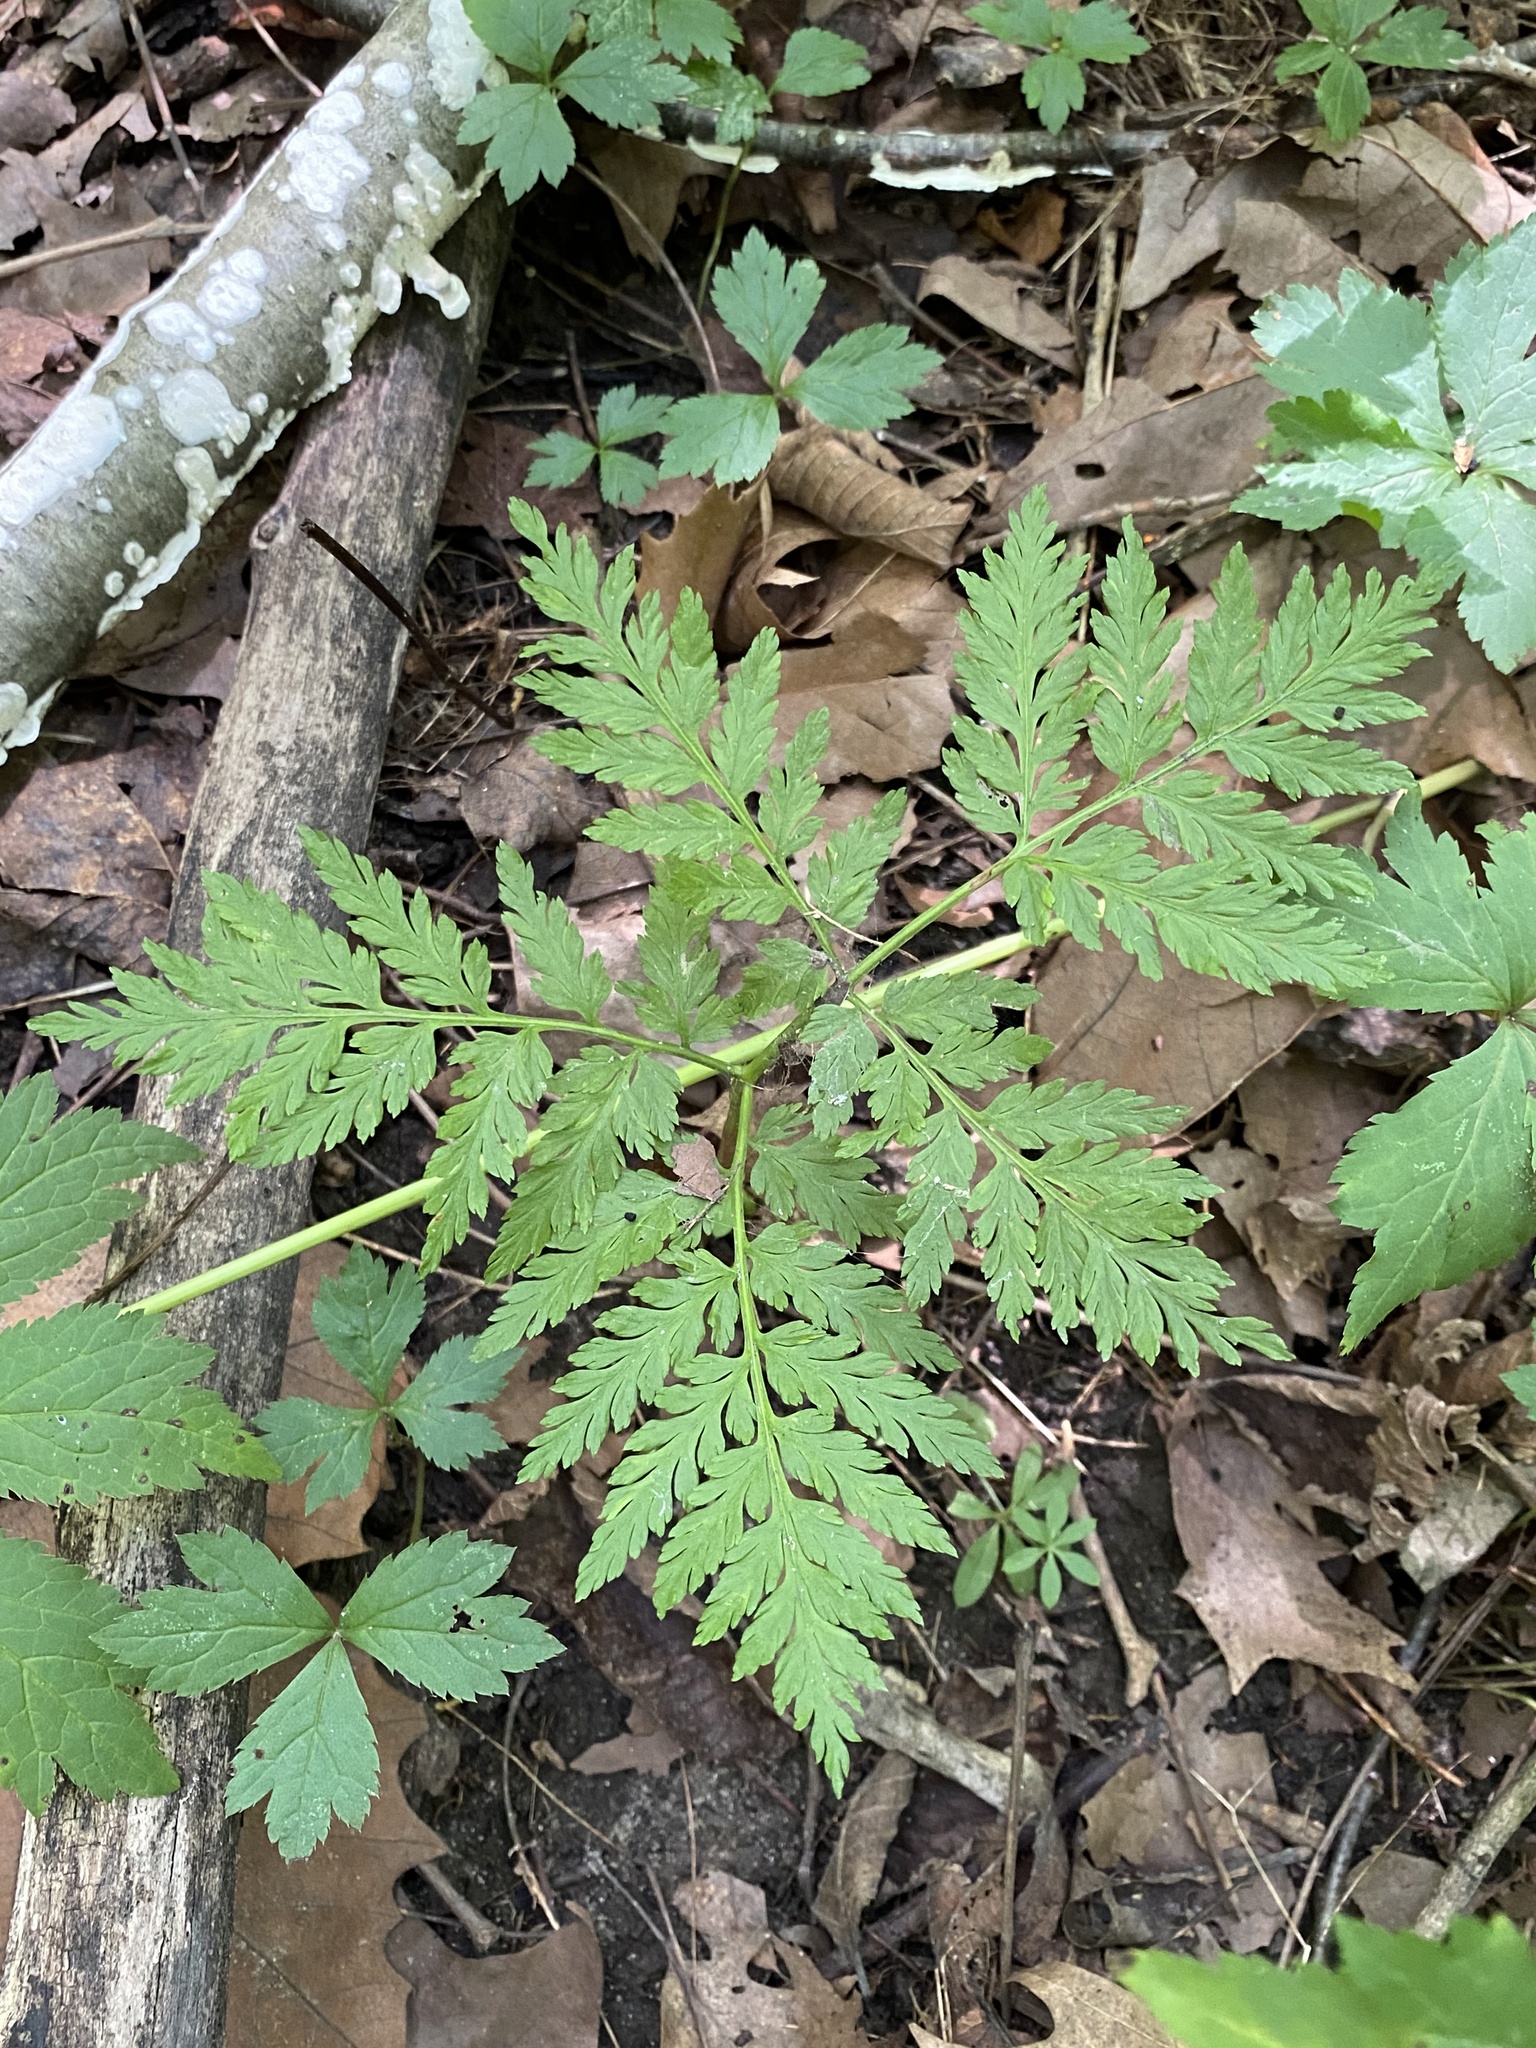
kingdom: Plantae
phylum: Tracheophyta
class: Polypodiopsida
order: Ophioglossales
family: Ophioglossaceae
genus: Botrypus
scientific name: Botrypus virginianus
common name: Common grapefern
